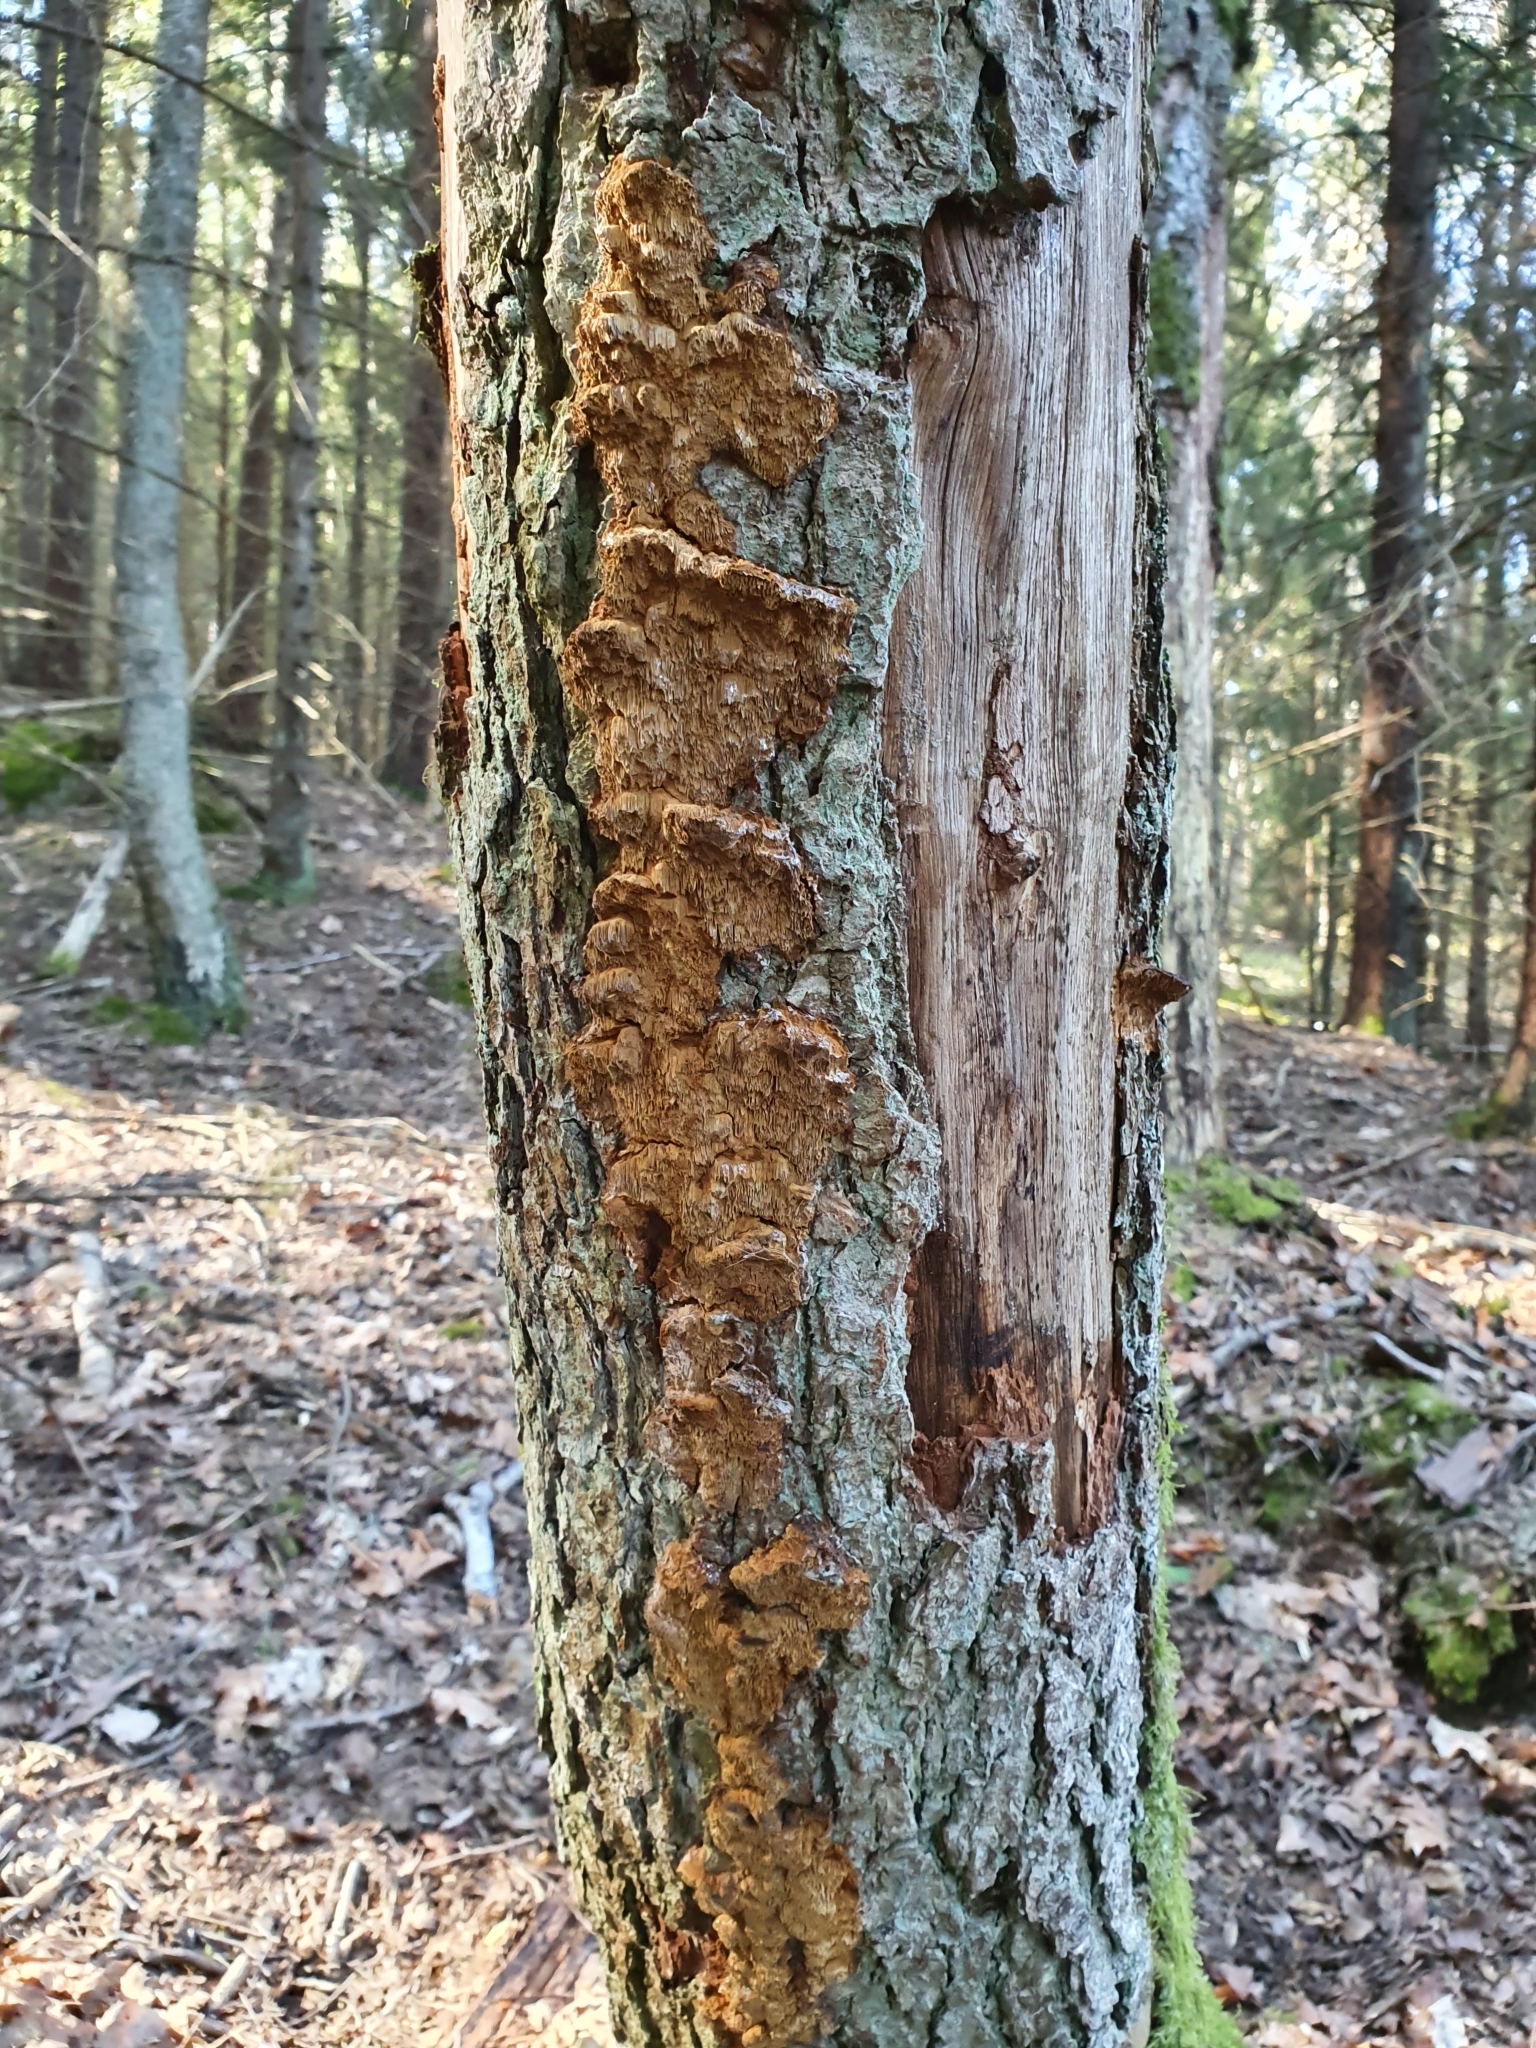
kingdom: Fungi
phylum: Basidiomycota
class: Agaricomycetes
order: Hymenochaetales
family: Hymenochaetaceae
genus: Xanthoporia
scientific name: Xanthoporia radiata
